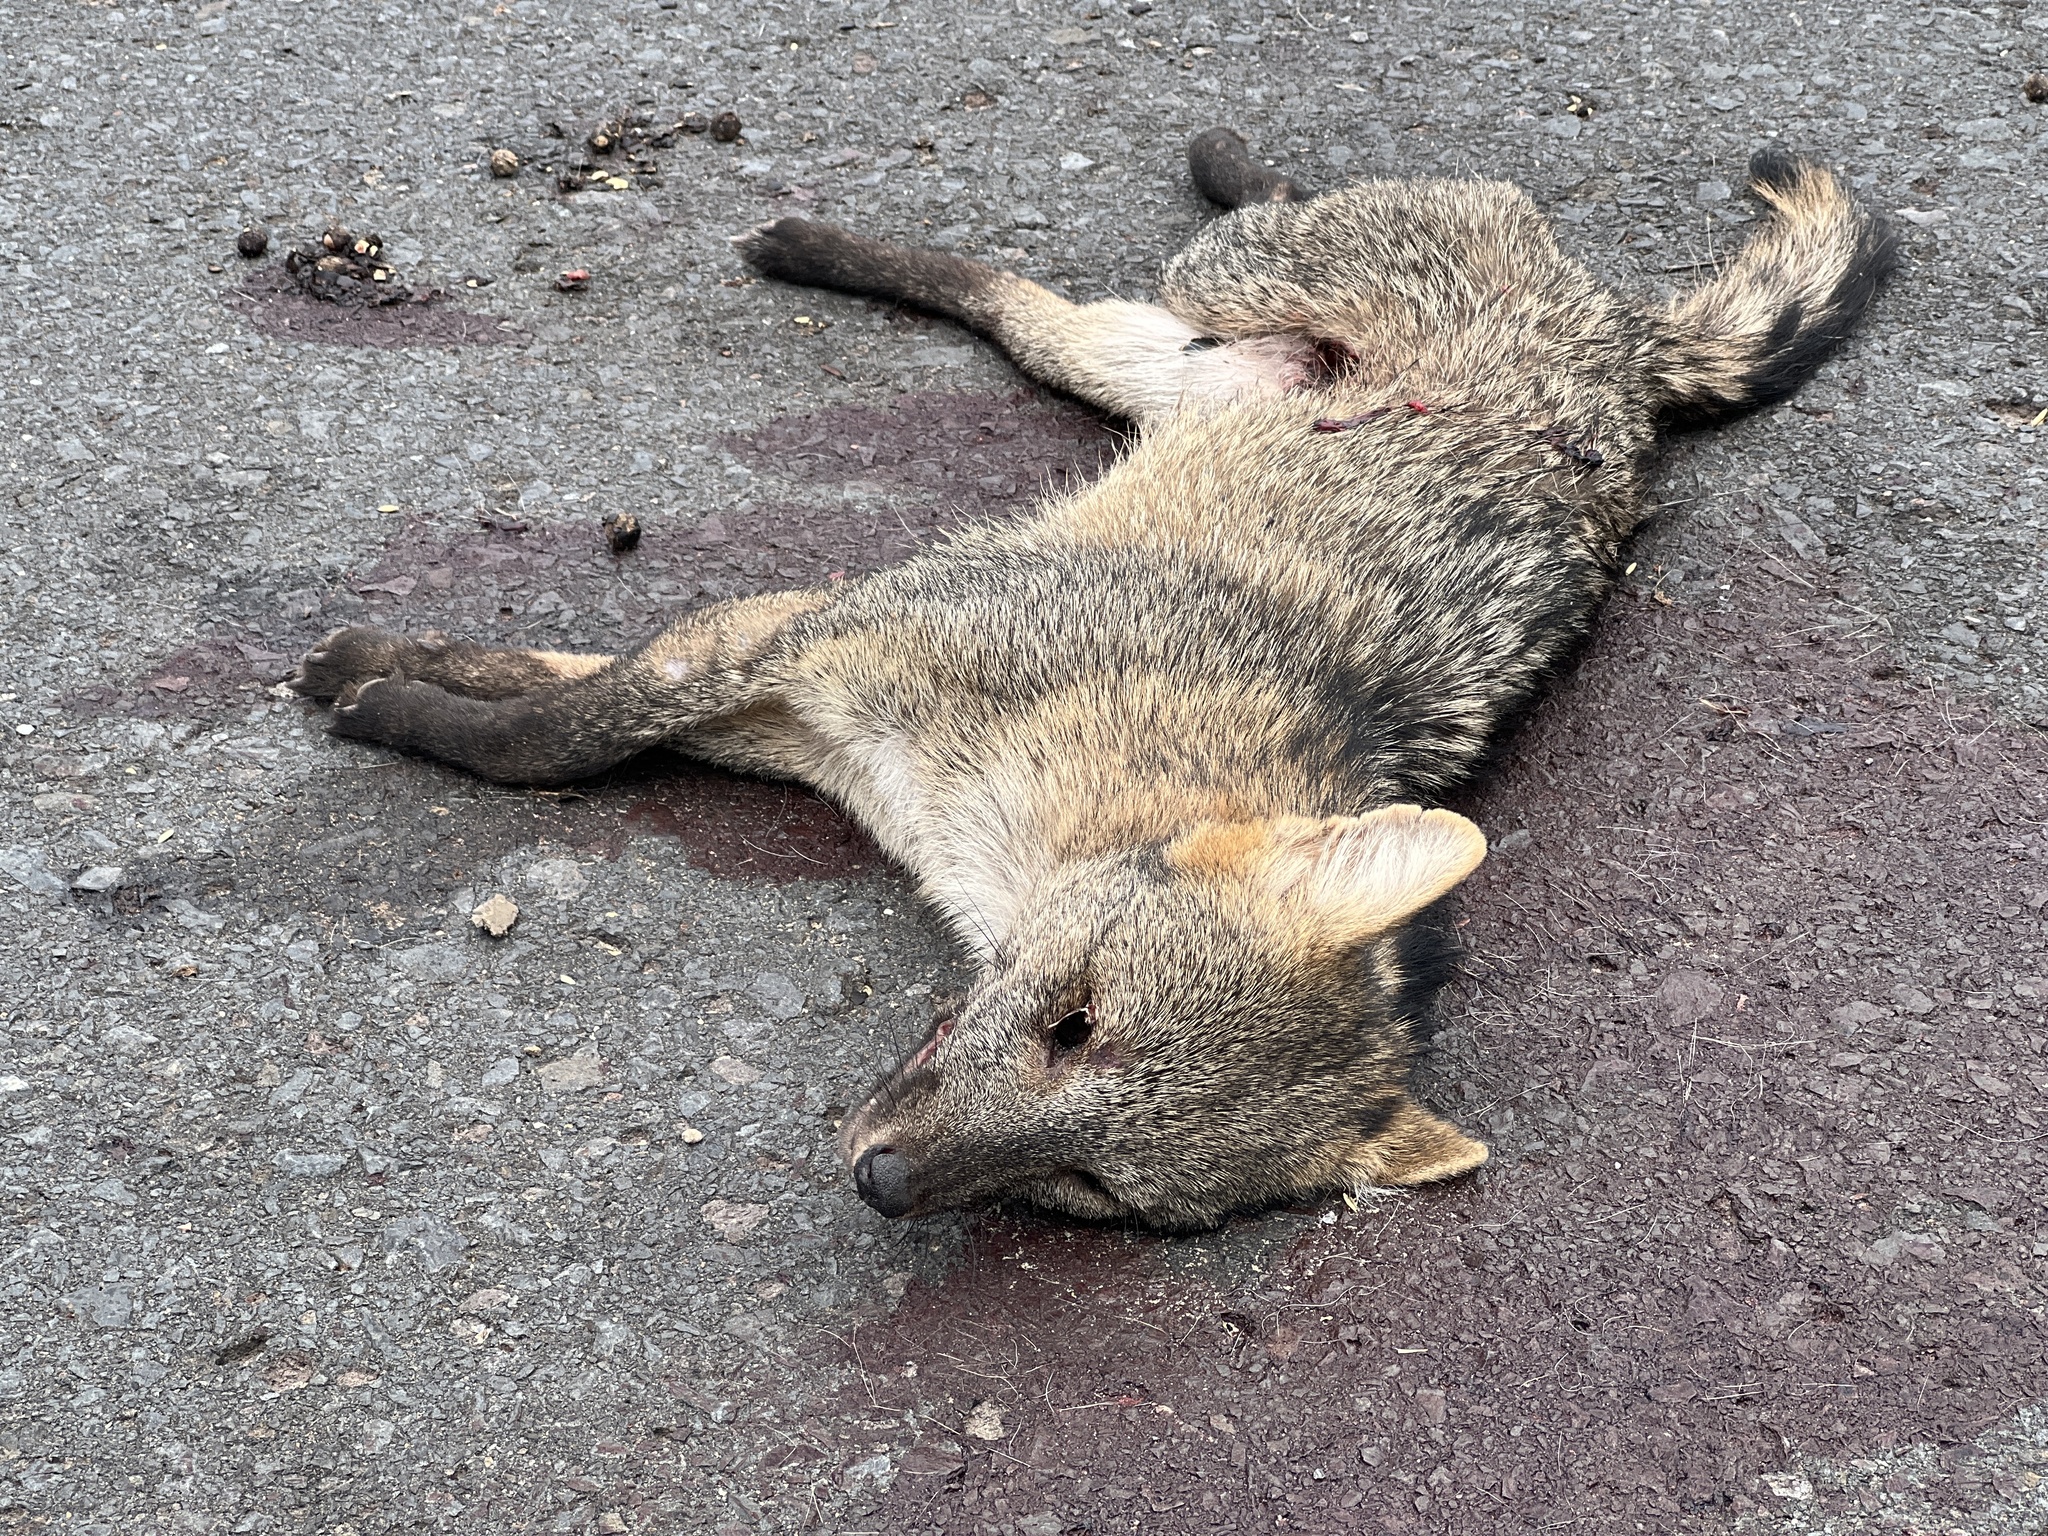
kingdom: Animalia
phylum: Chordata
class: Mammalia
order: Carnivora
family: Canidae
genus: Cerdocyon
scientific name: Cerdocyon thous
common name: Crab-eating fox
